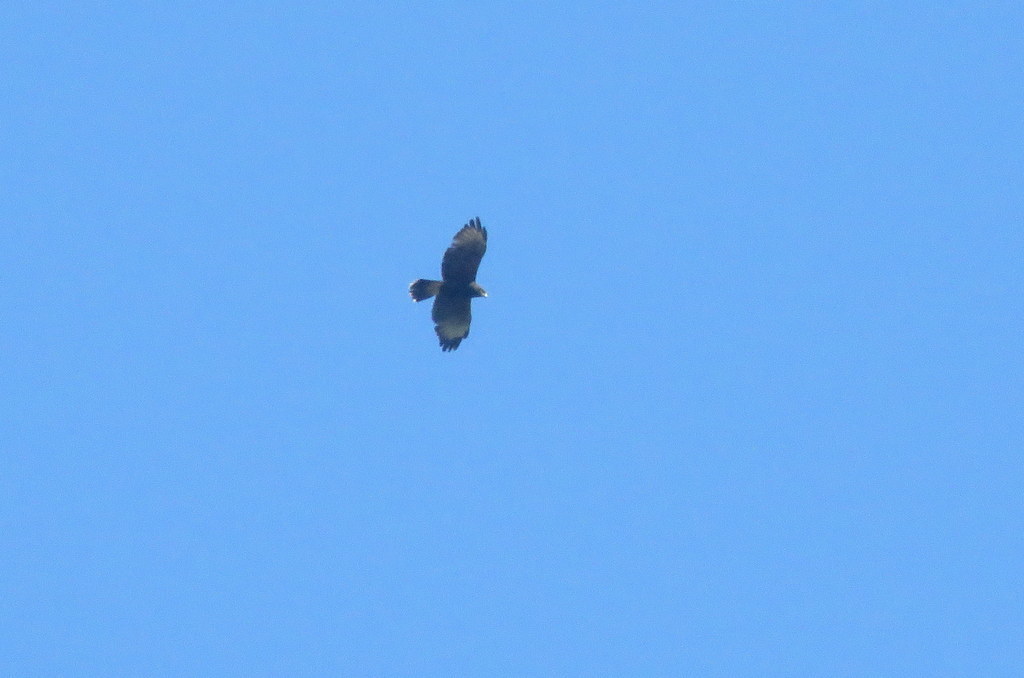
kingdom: Animalia
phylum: Chordata
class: Aves
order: Accipitriformes
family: Accipitridae
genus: Parabuteo
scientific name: Parabuteo unicinctus
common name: Harris's hawk
